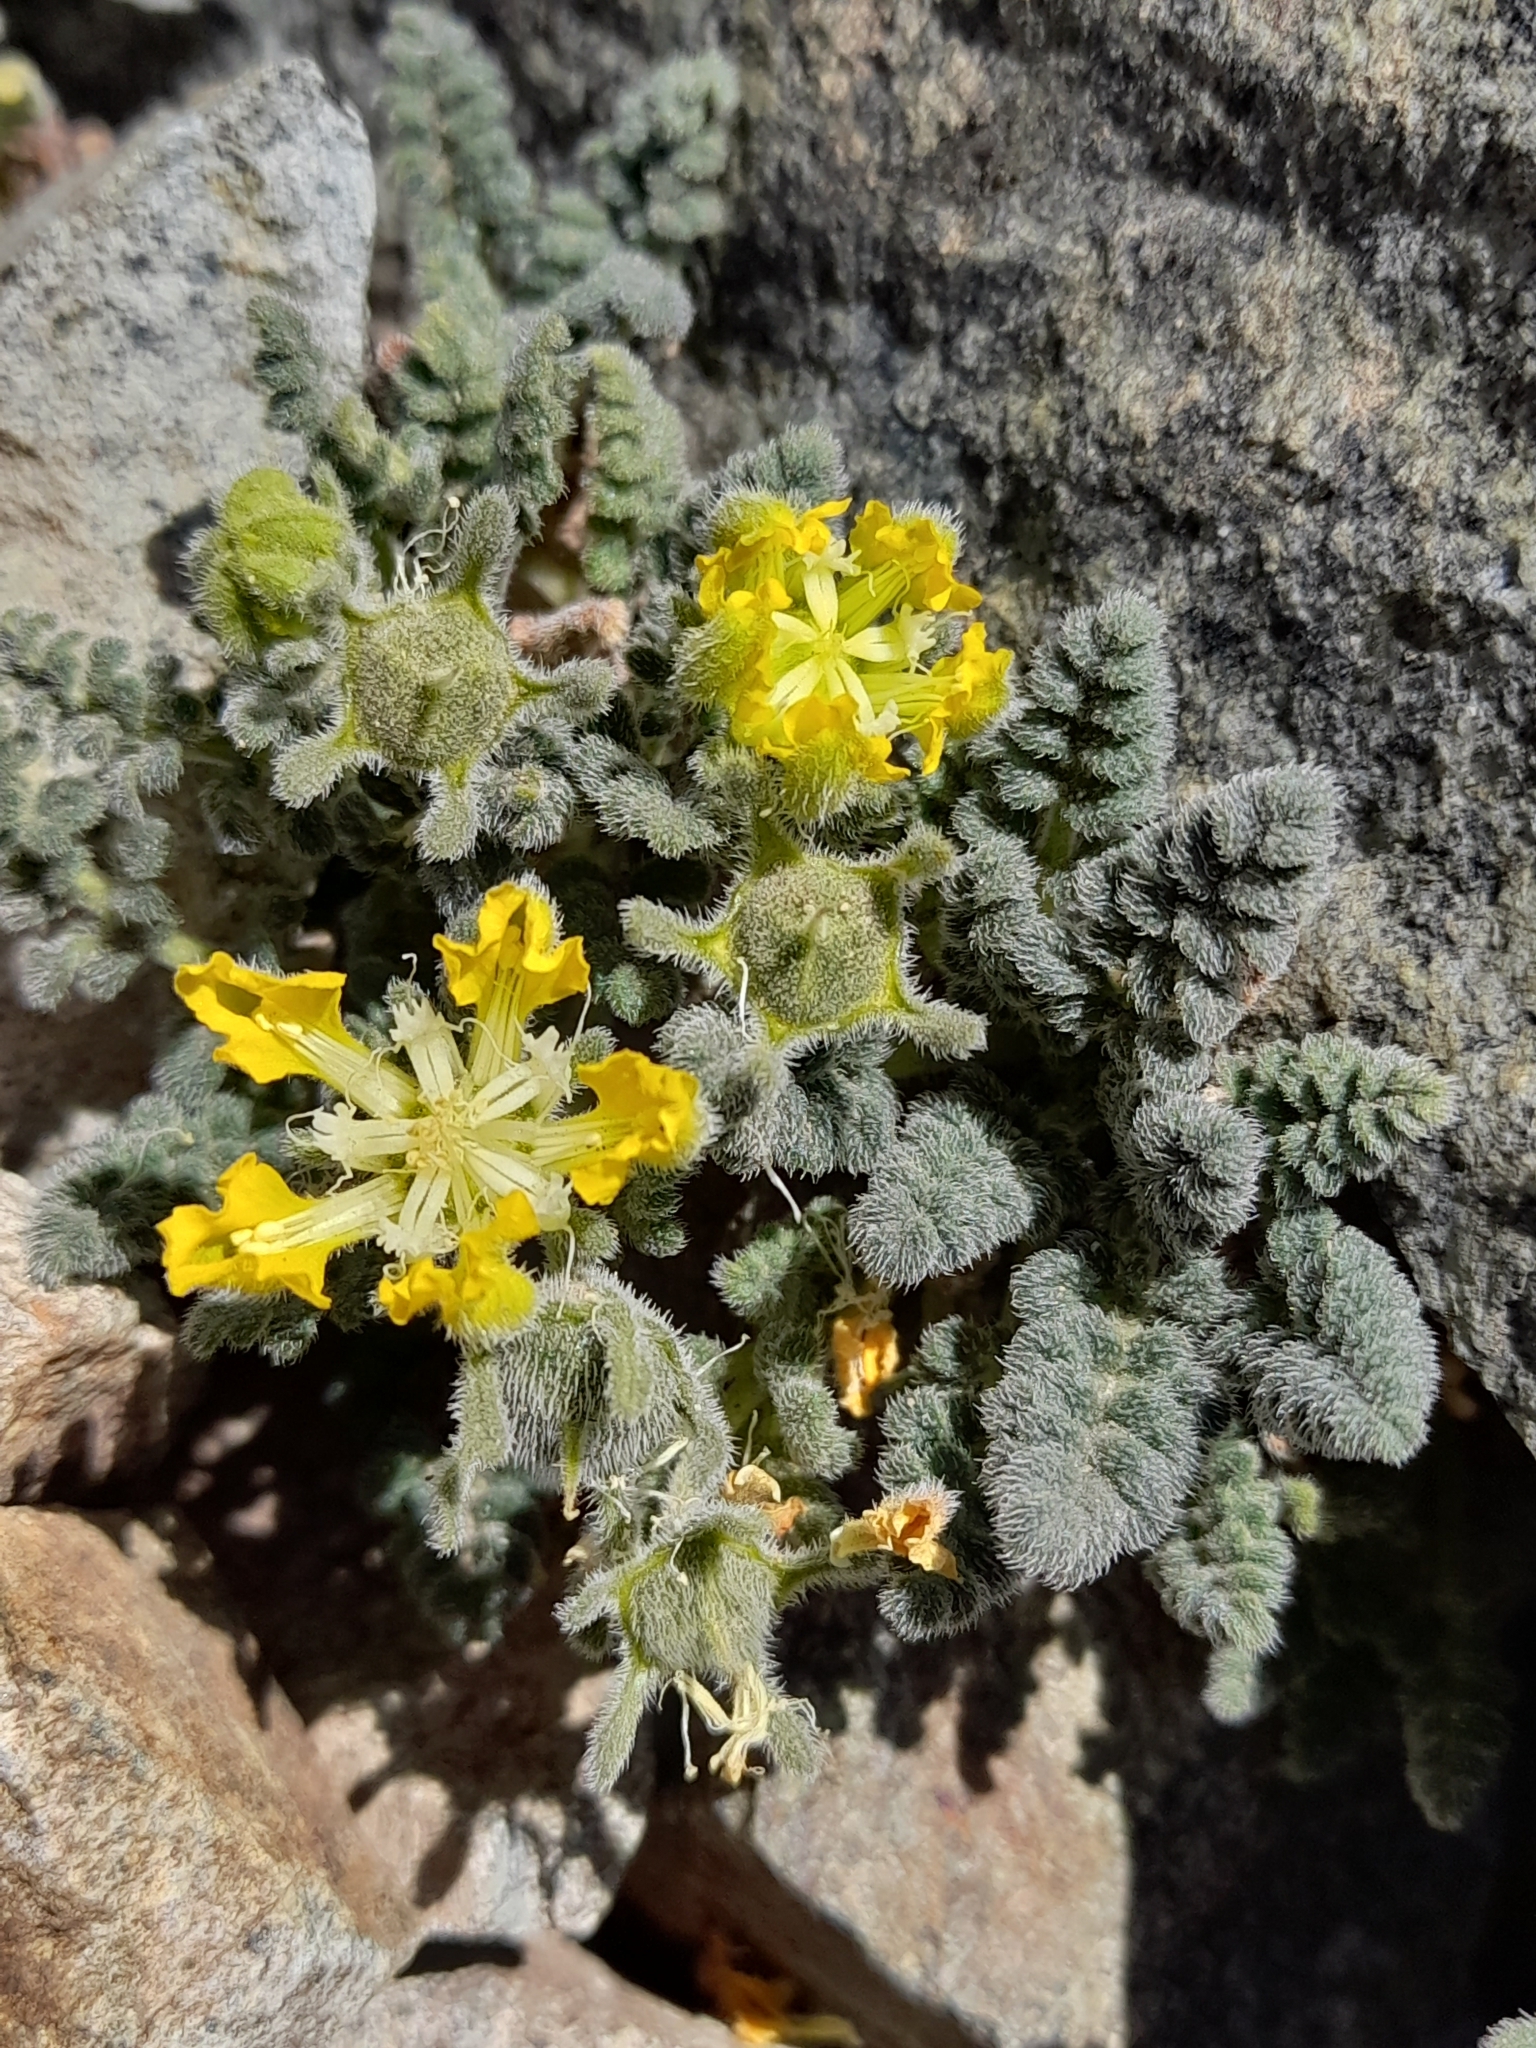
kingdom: Plantae
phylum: Tracheophyta
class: Magnoliopsida
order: Cornales
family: Loasaceae
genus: Pinnasa
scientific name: Pinnasa nana
